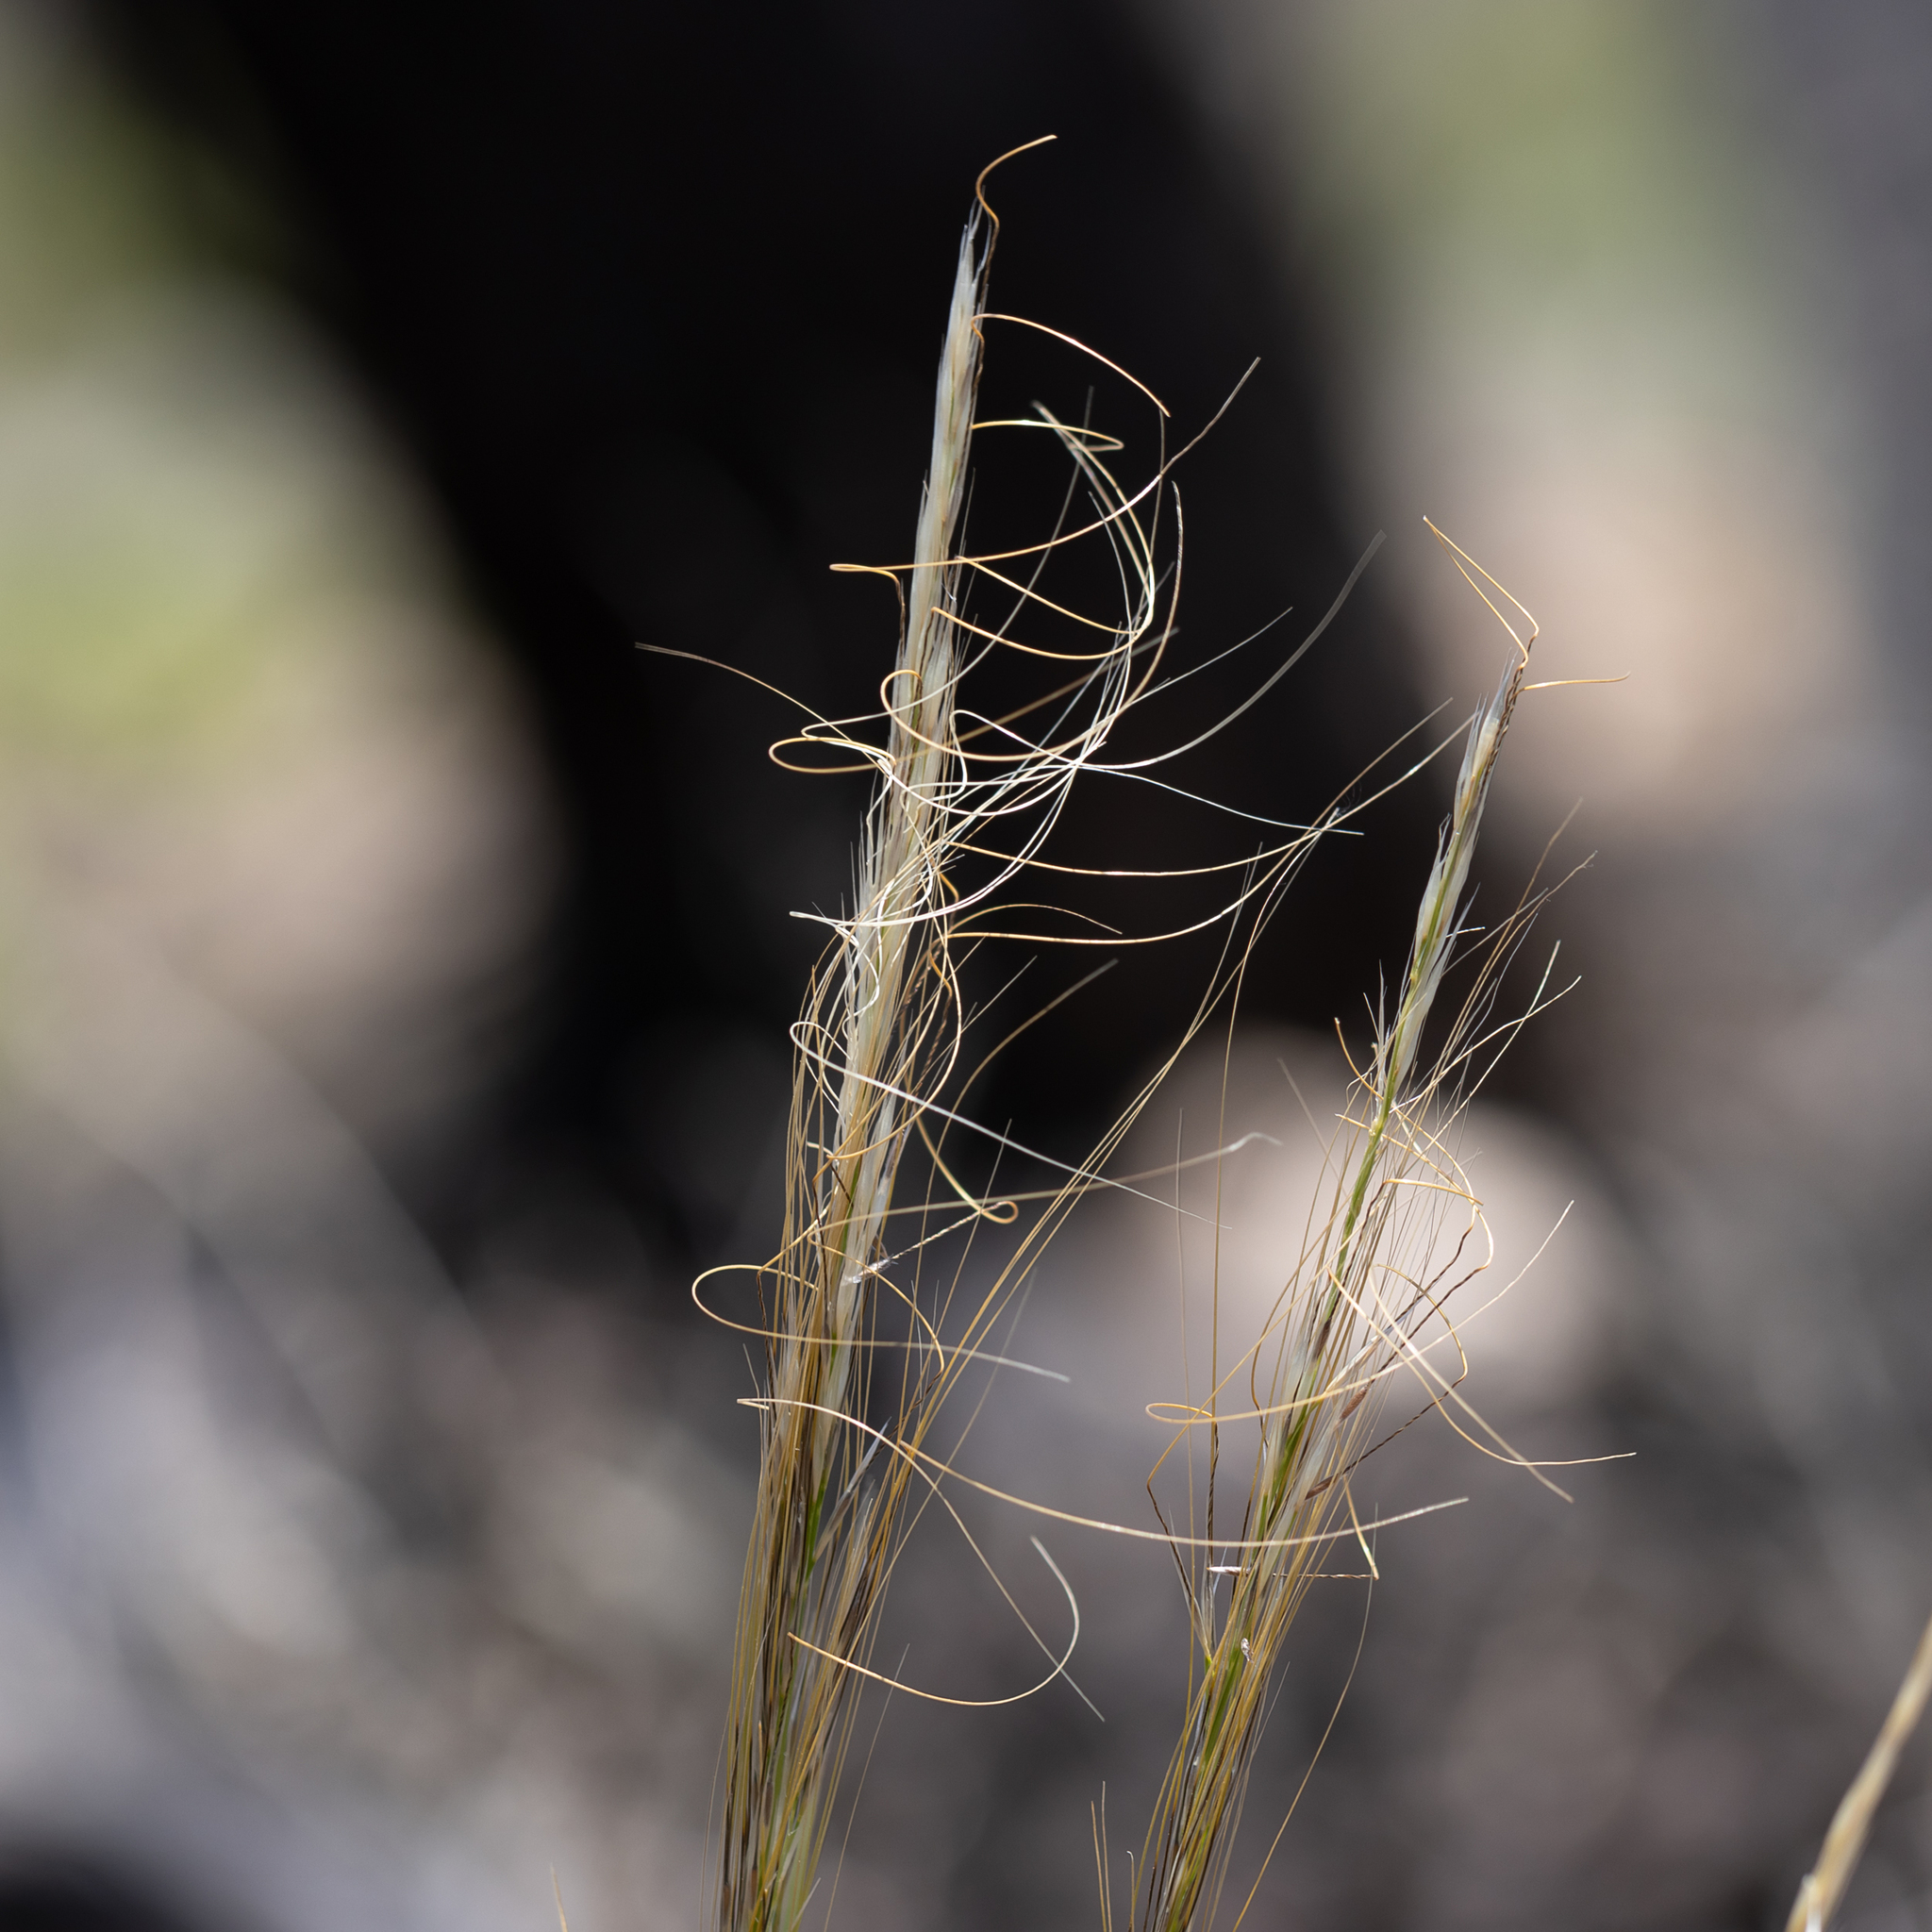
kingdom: Plantae
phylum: Tracheophyta
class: Liliopsida
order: Poales
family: Poaceae
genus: Austrostipa
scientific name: Austrostipa nitida
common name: Balcarra grass
